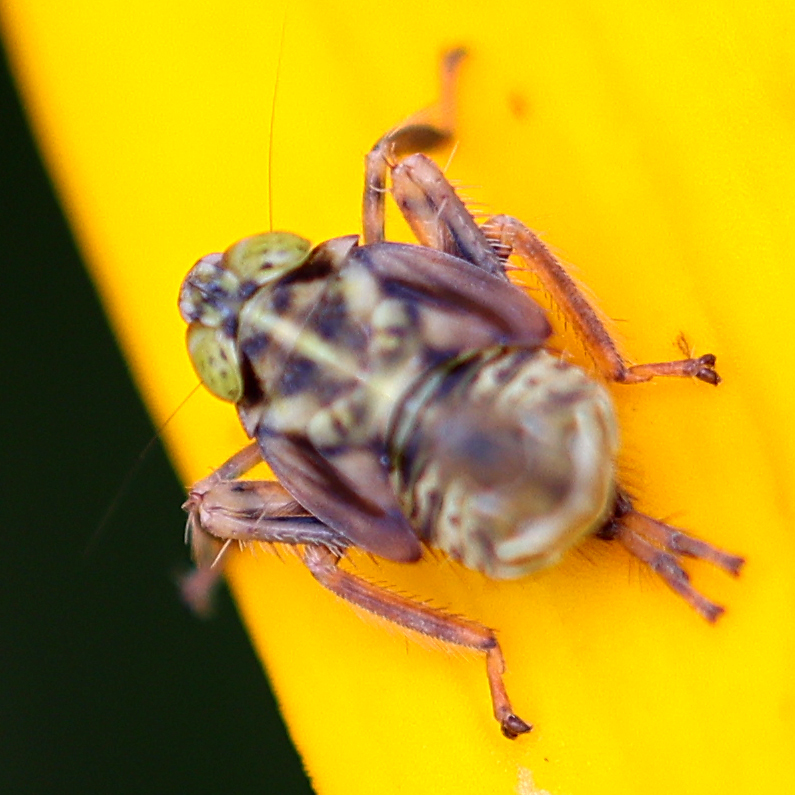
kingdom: Animalia
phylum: Arthropoda
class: Insecta
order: Hemiptera
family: Cicadellidae
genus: Jikradia
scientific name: Jikradia olitoria
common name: Coppery leafhopper
